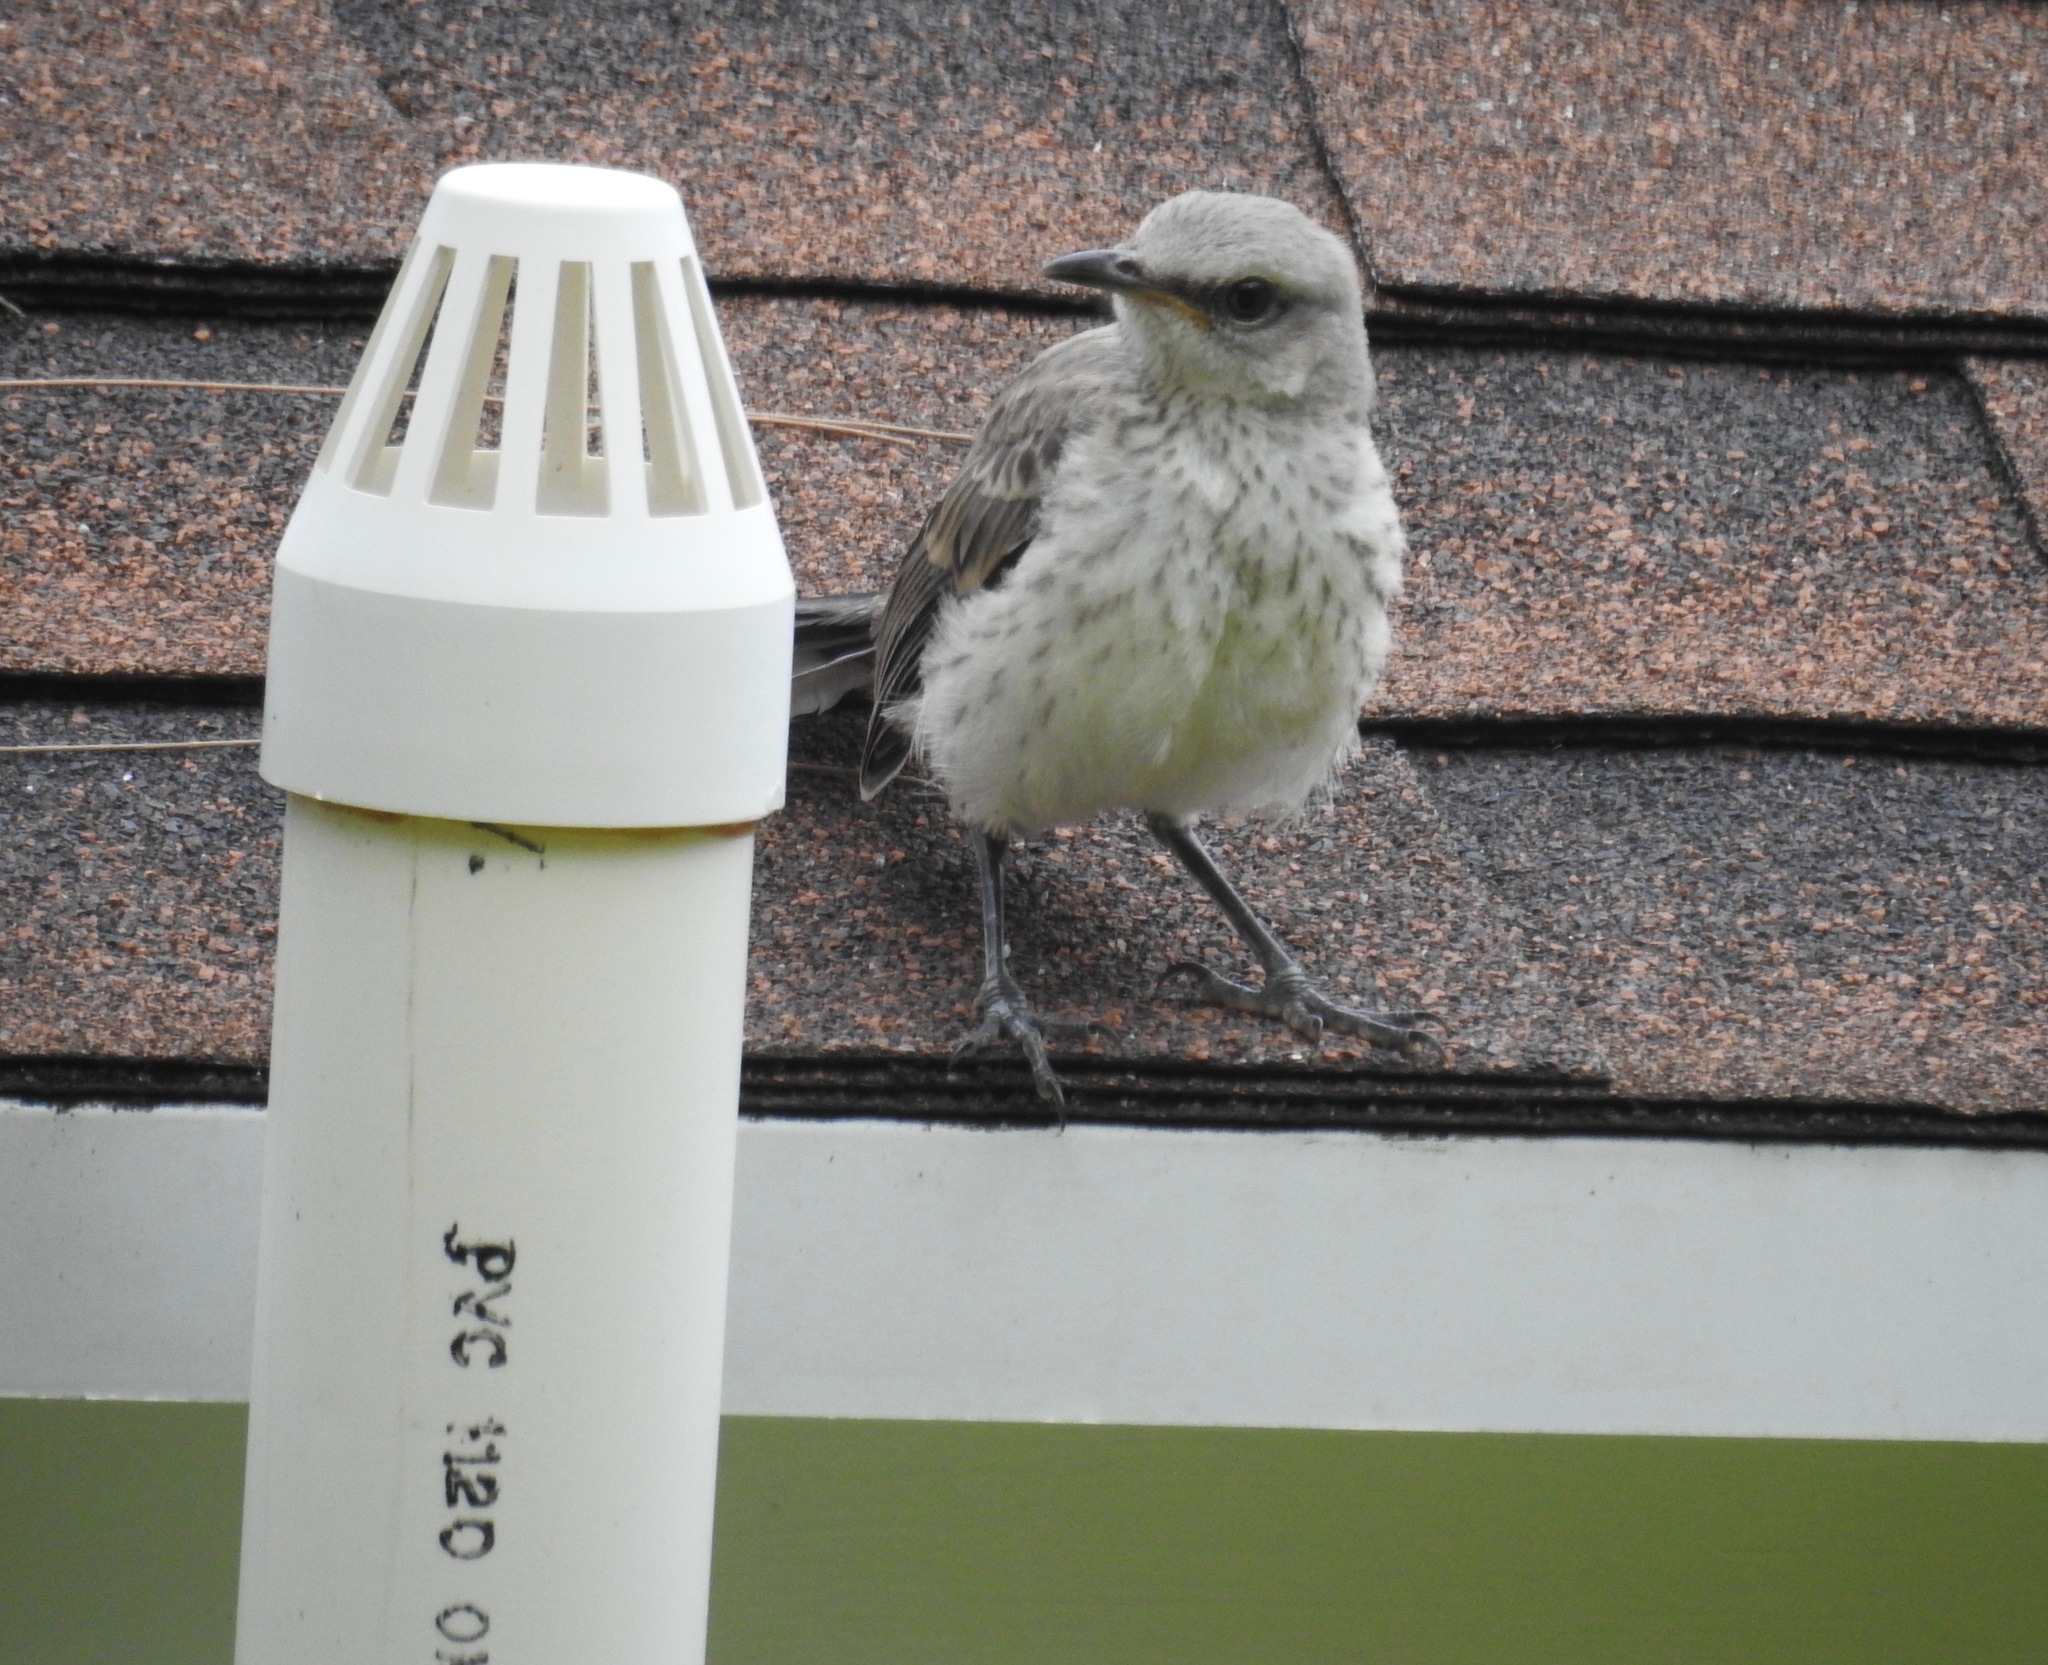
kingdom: Animalia
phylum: Chordata
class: Aves
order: Passeriformes
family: Mimidae
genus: Mimus
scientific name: Mimus gilvus
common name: Tropical mockingbird
